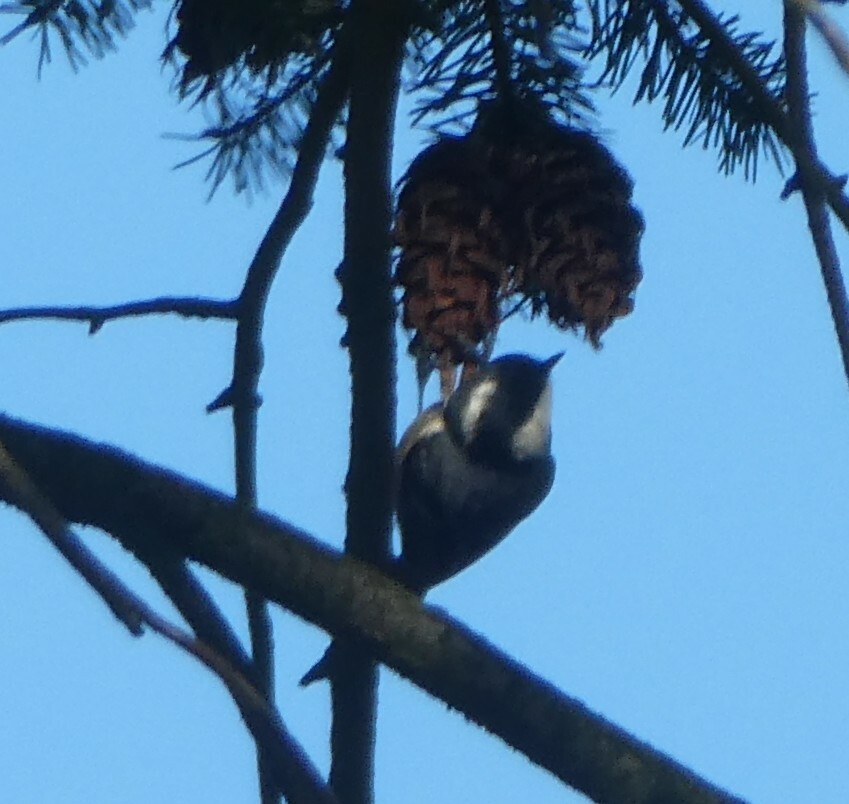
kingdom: Animalia
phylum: Chordata
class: Aves
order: Passeriformes
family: Paridae
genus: Periparus
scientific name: Periparus ater
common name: Coal tit
